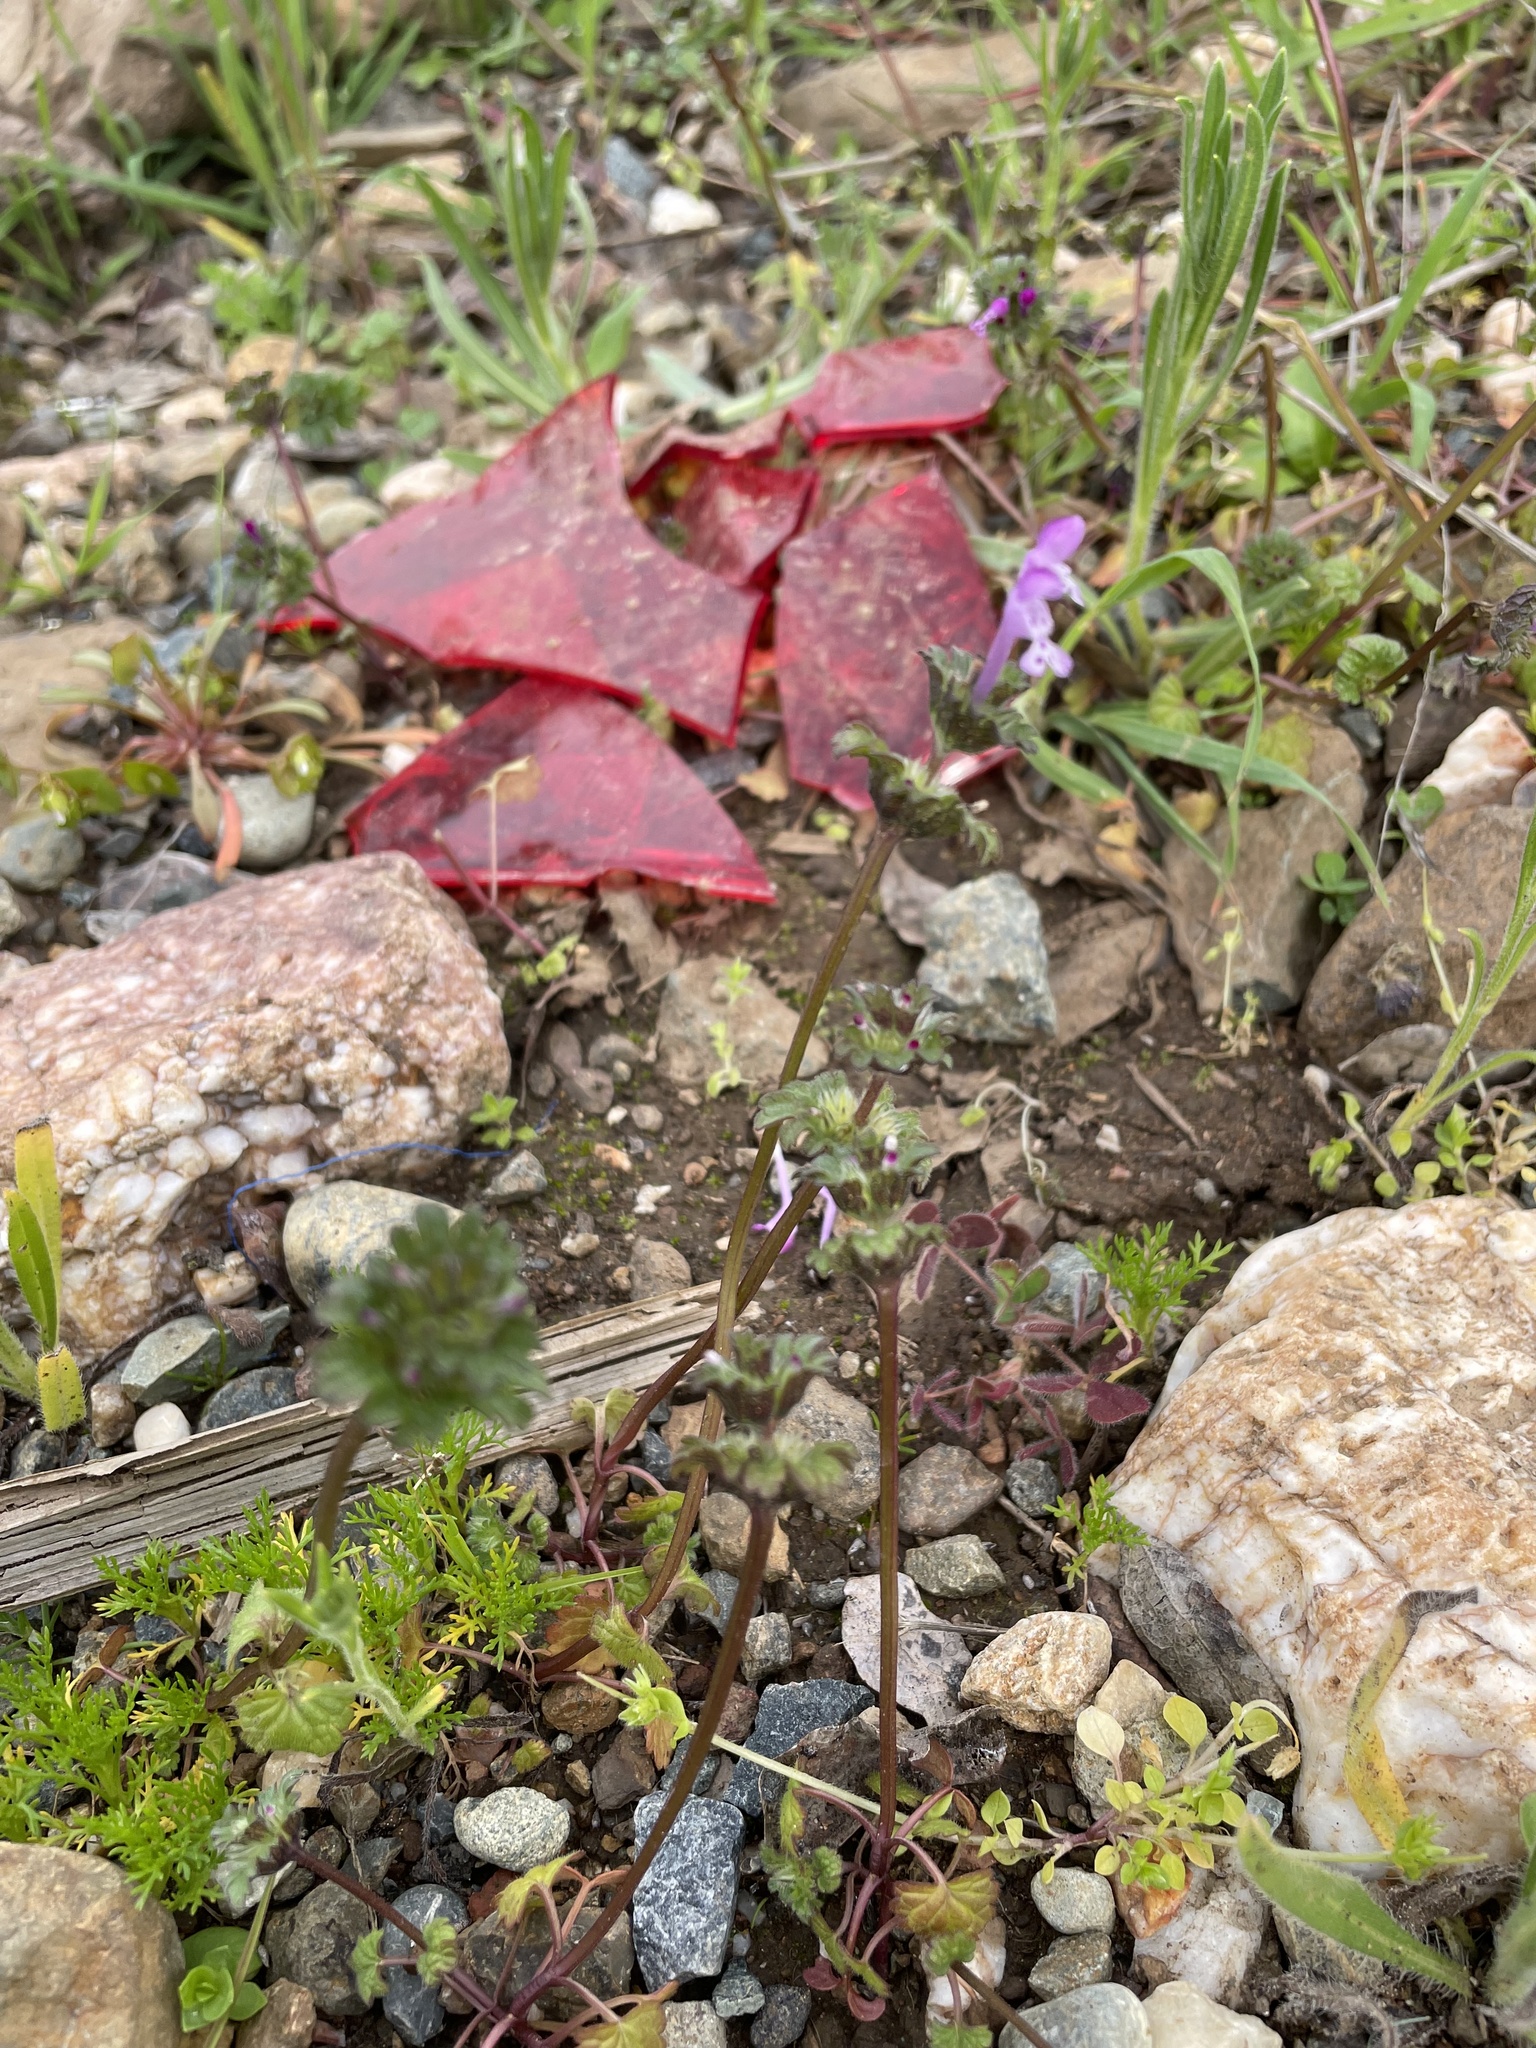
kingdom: Plantae
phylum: Tracheophyta
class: Magnoliopsida
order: Lamiales
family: Lamiaceae
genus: Lamium
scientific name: Lamium amplexicaule
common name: Henbit dead-nettle
